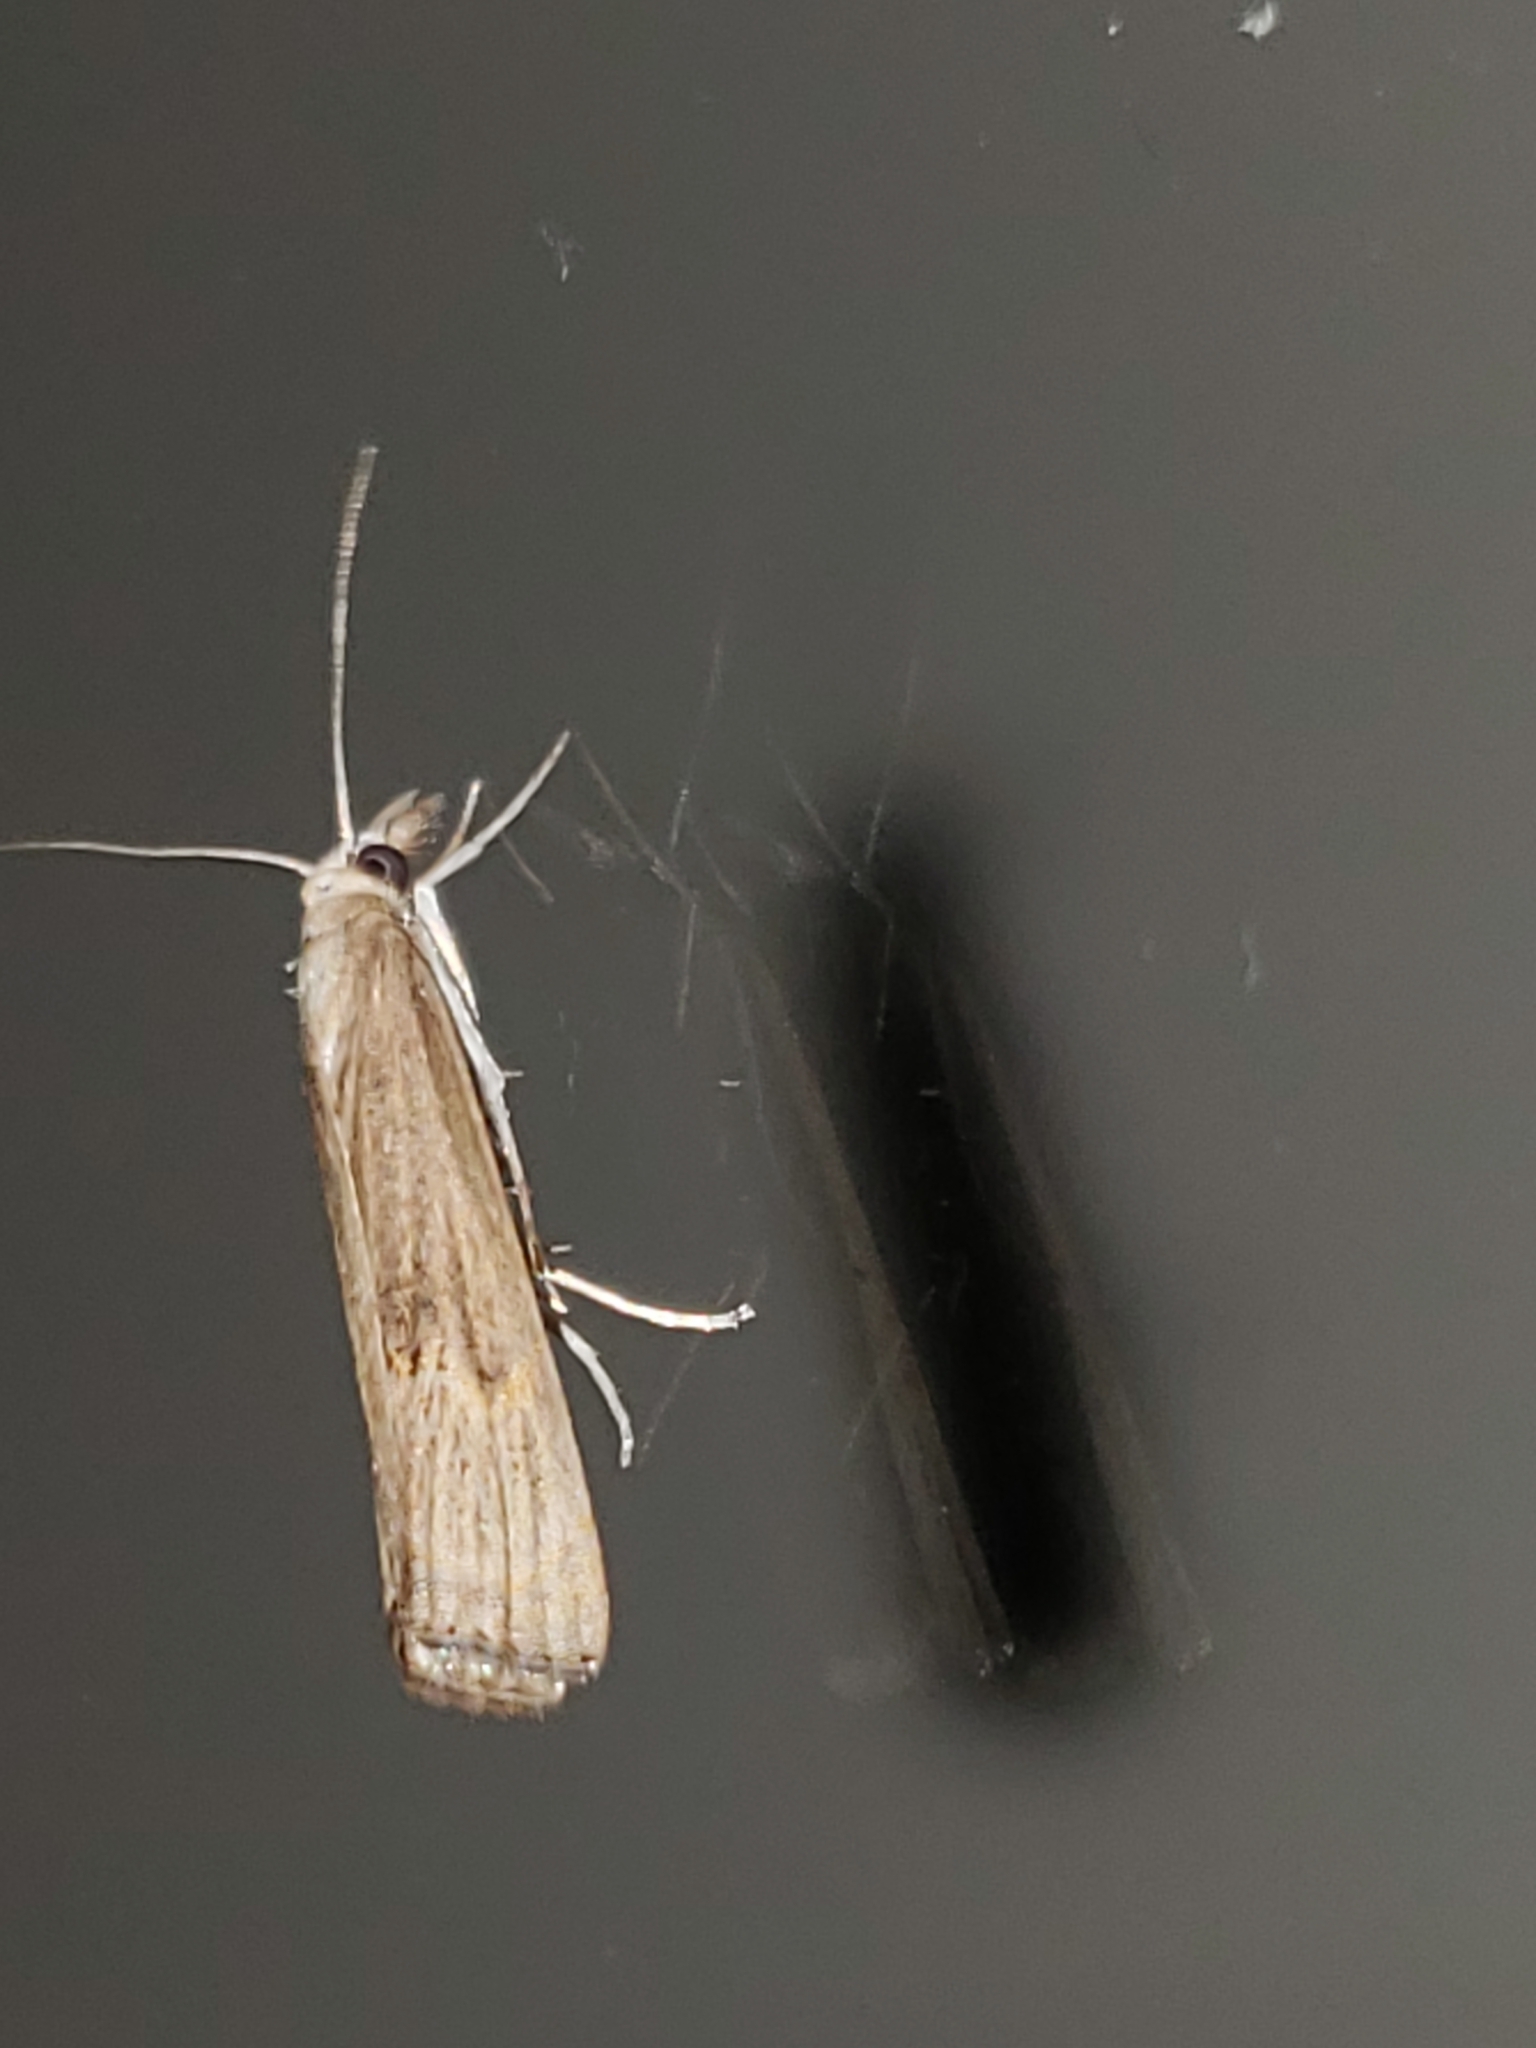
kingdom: Animalia
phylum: Arthropoda
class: Insecta
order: Lepidoptera
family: Crambidae
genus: Parapediasia
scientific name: Parapediasia teterellus
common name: Bluegrass webworm moth
